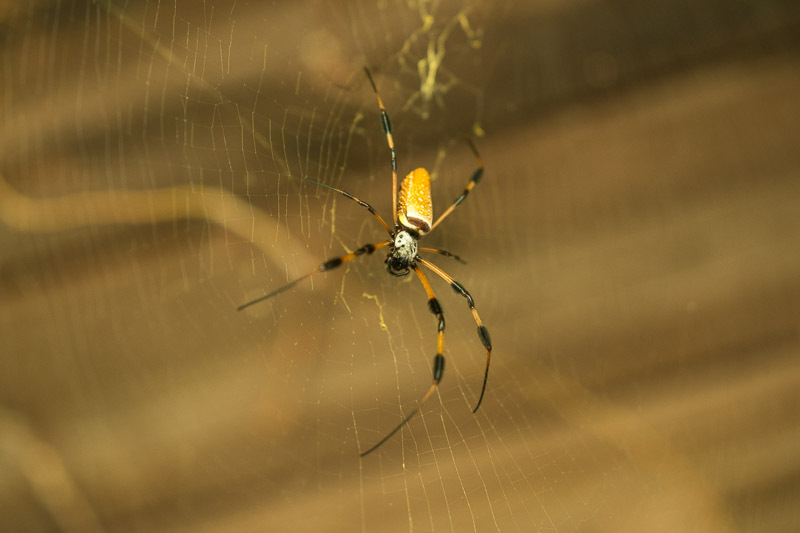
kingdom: Animalia
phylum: Arthropoda
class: Arachnida
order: Araneae
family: Araneidae
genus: Trichonephila
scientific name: Trichonephila clavipes
